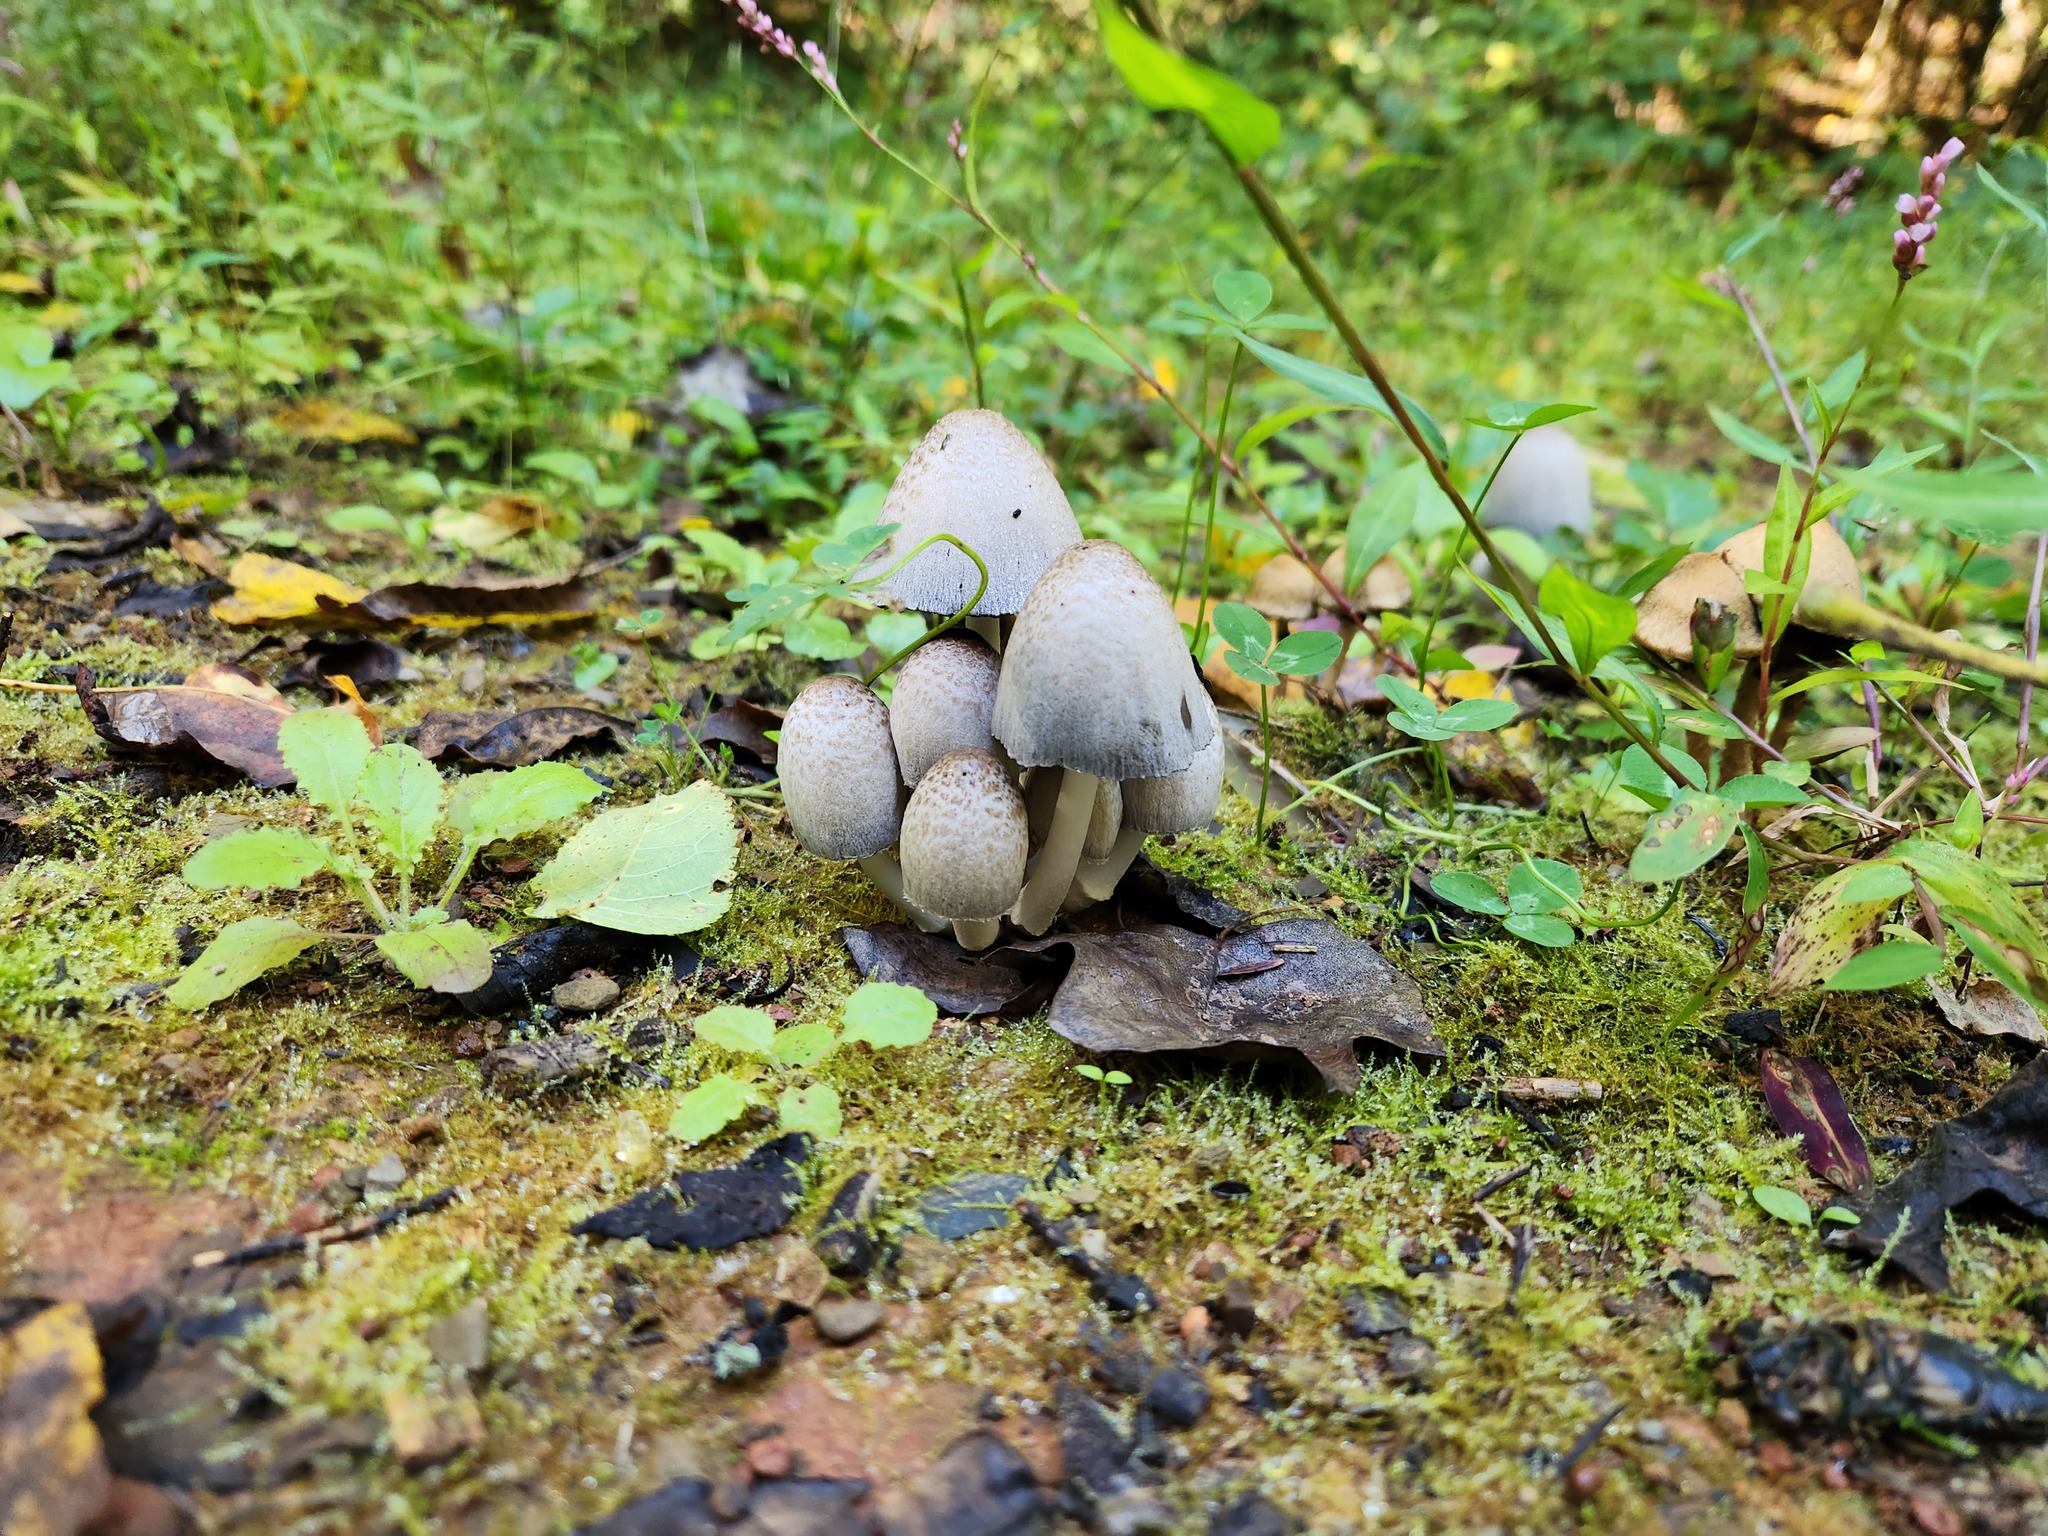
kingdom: Fungi
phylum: Basidiomycota
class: Agaricomycetes
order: Agaricales
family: Psathyrellaceae
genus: Coprinopsis
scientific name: Coprinopsis atramentaria
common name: Common ink-cap
